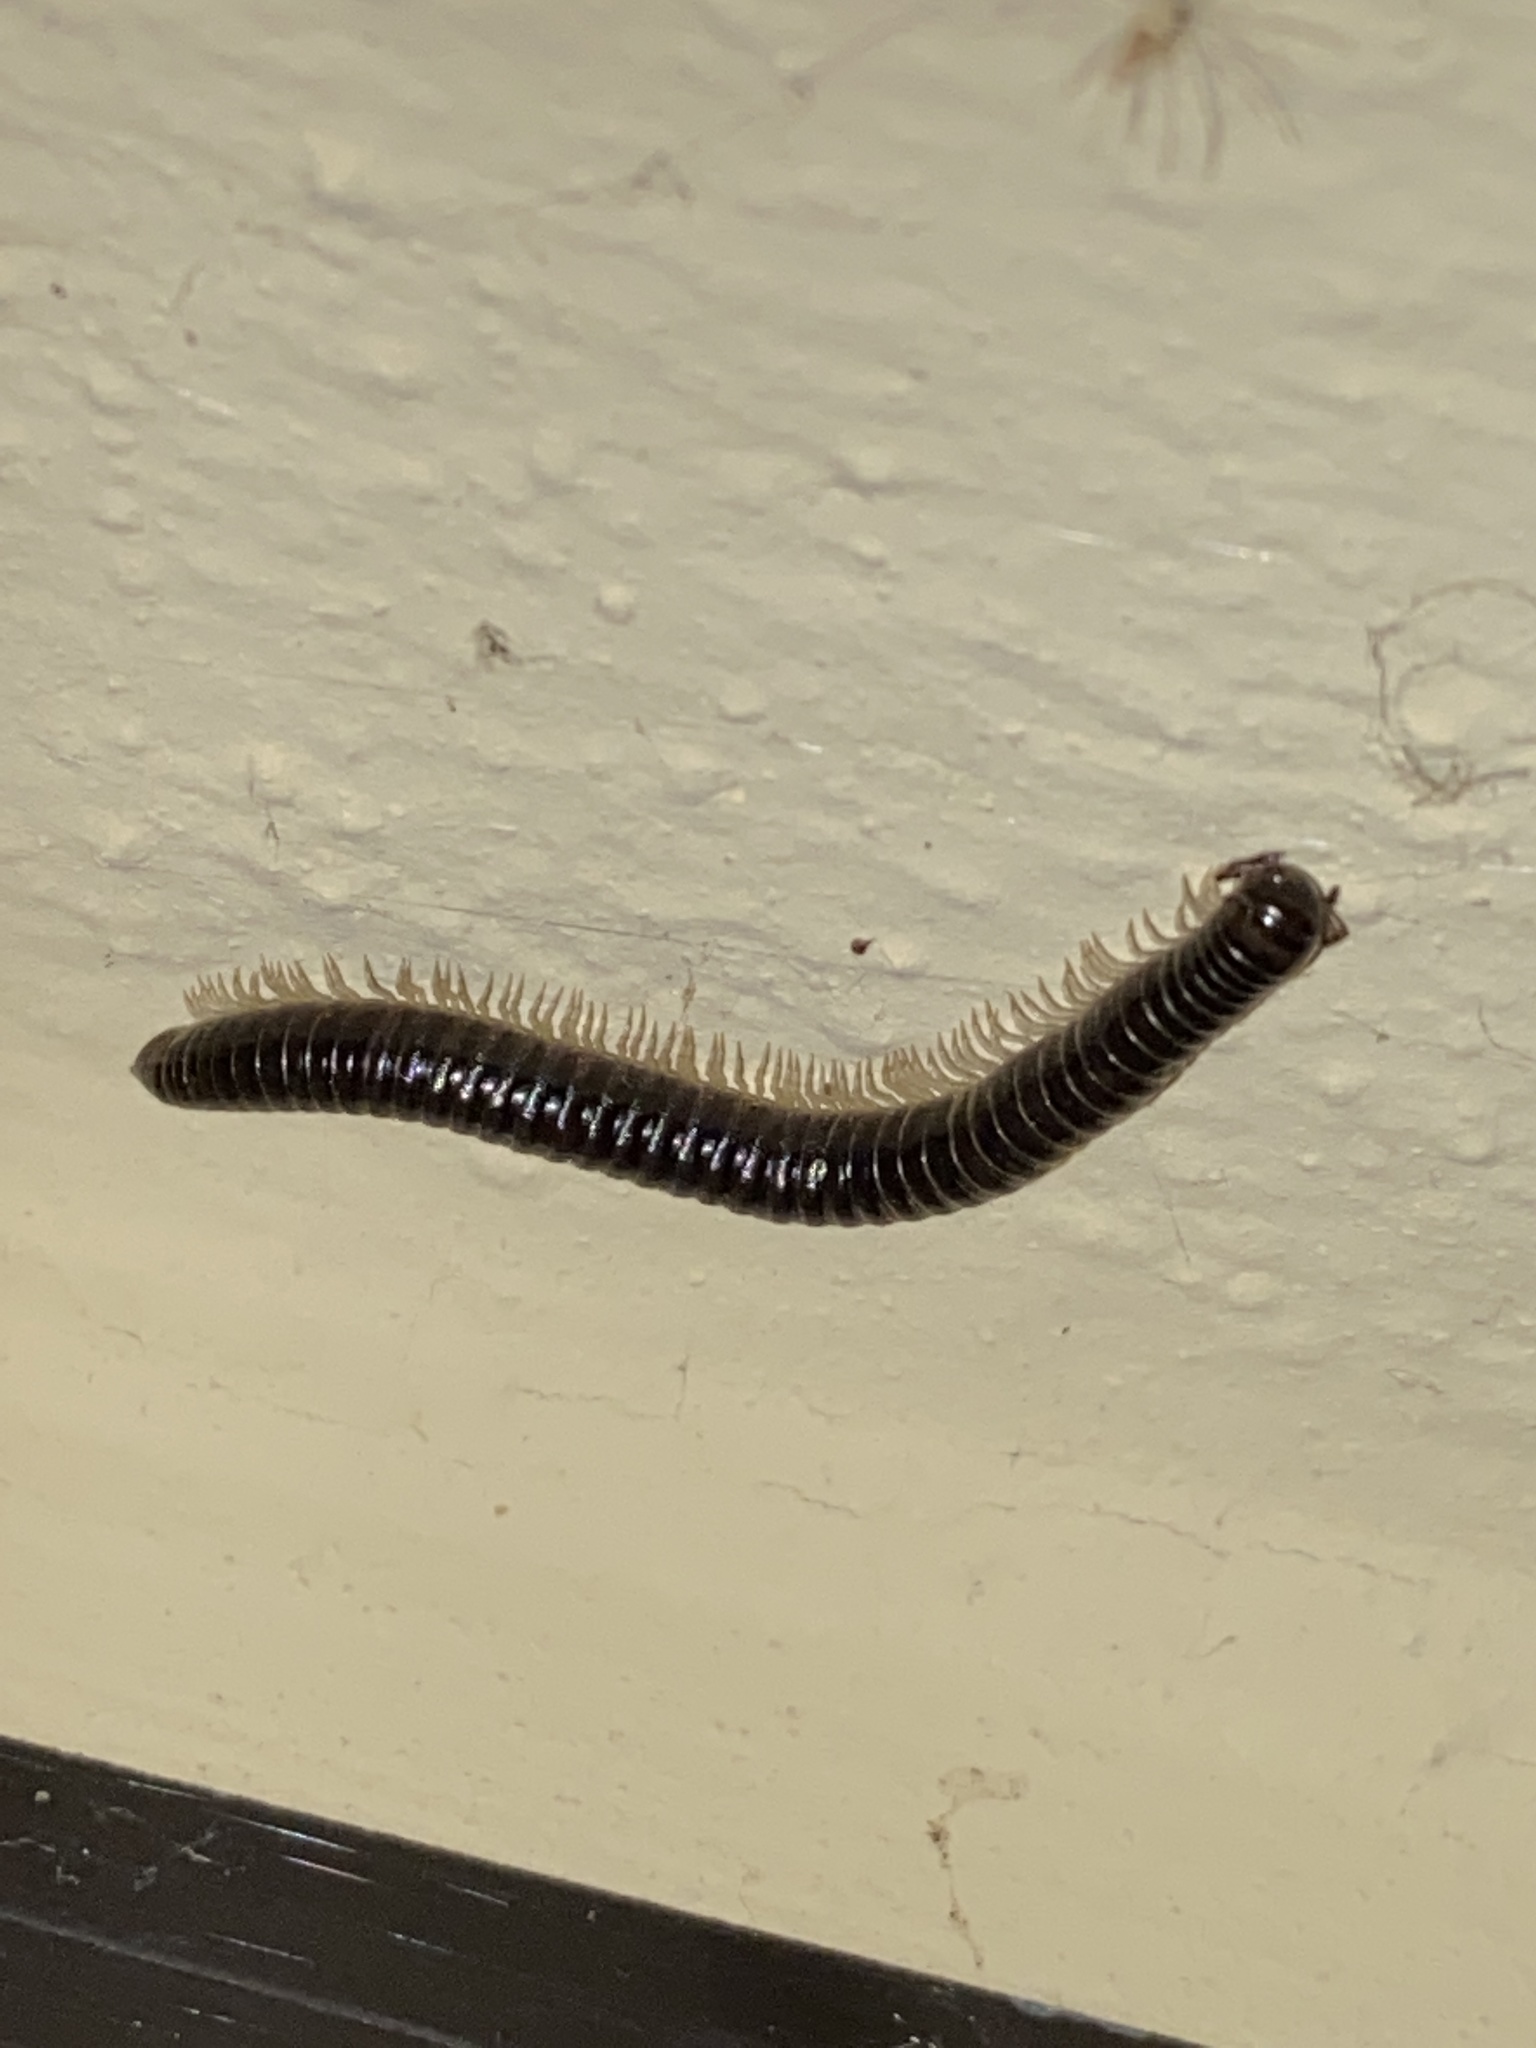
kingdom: Animalia
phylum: Arthropoda
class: Diplopoda
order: Julida
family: Julidae
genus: Tachypodoiulus
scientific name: Tachypodoiulus niger
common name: White-legged snake millipede
